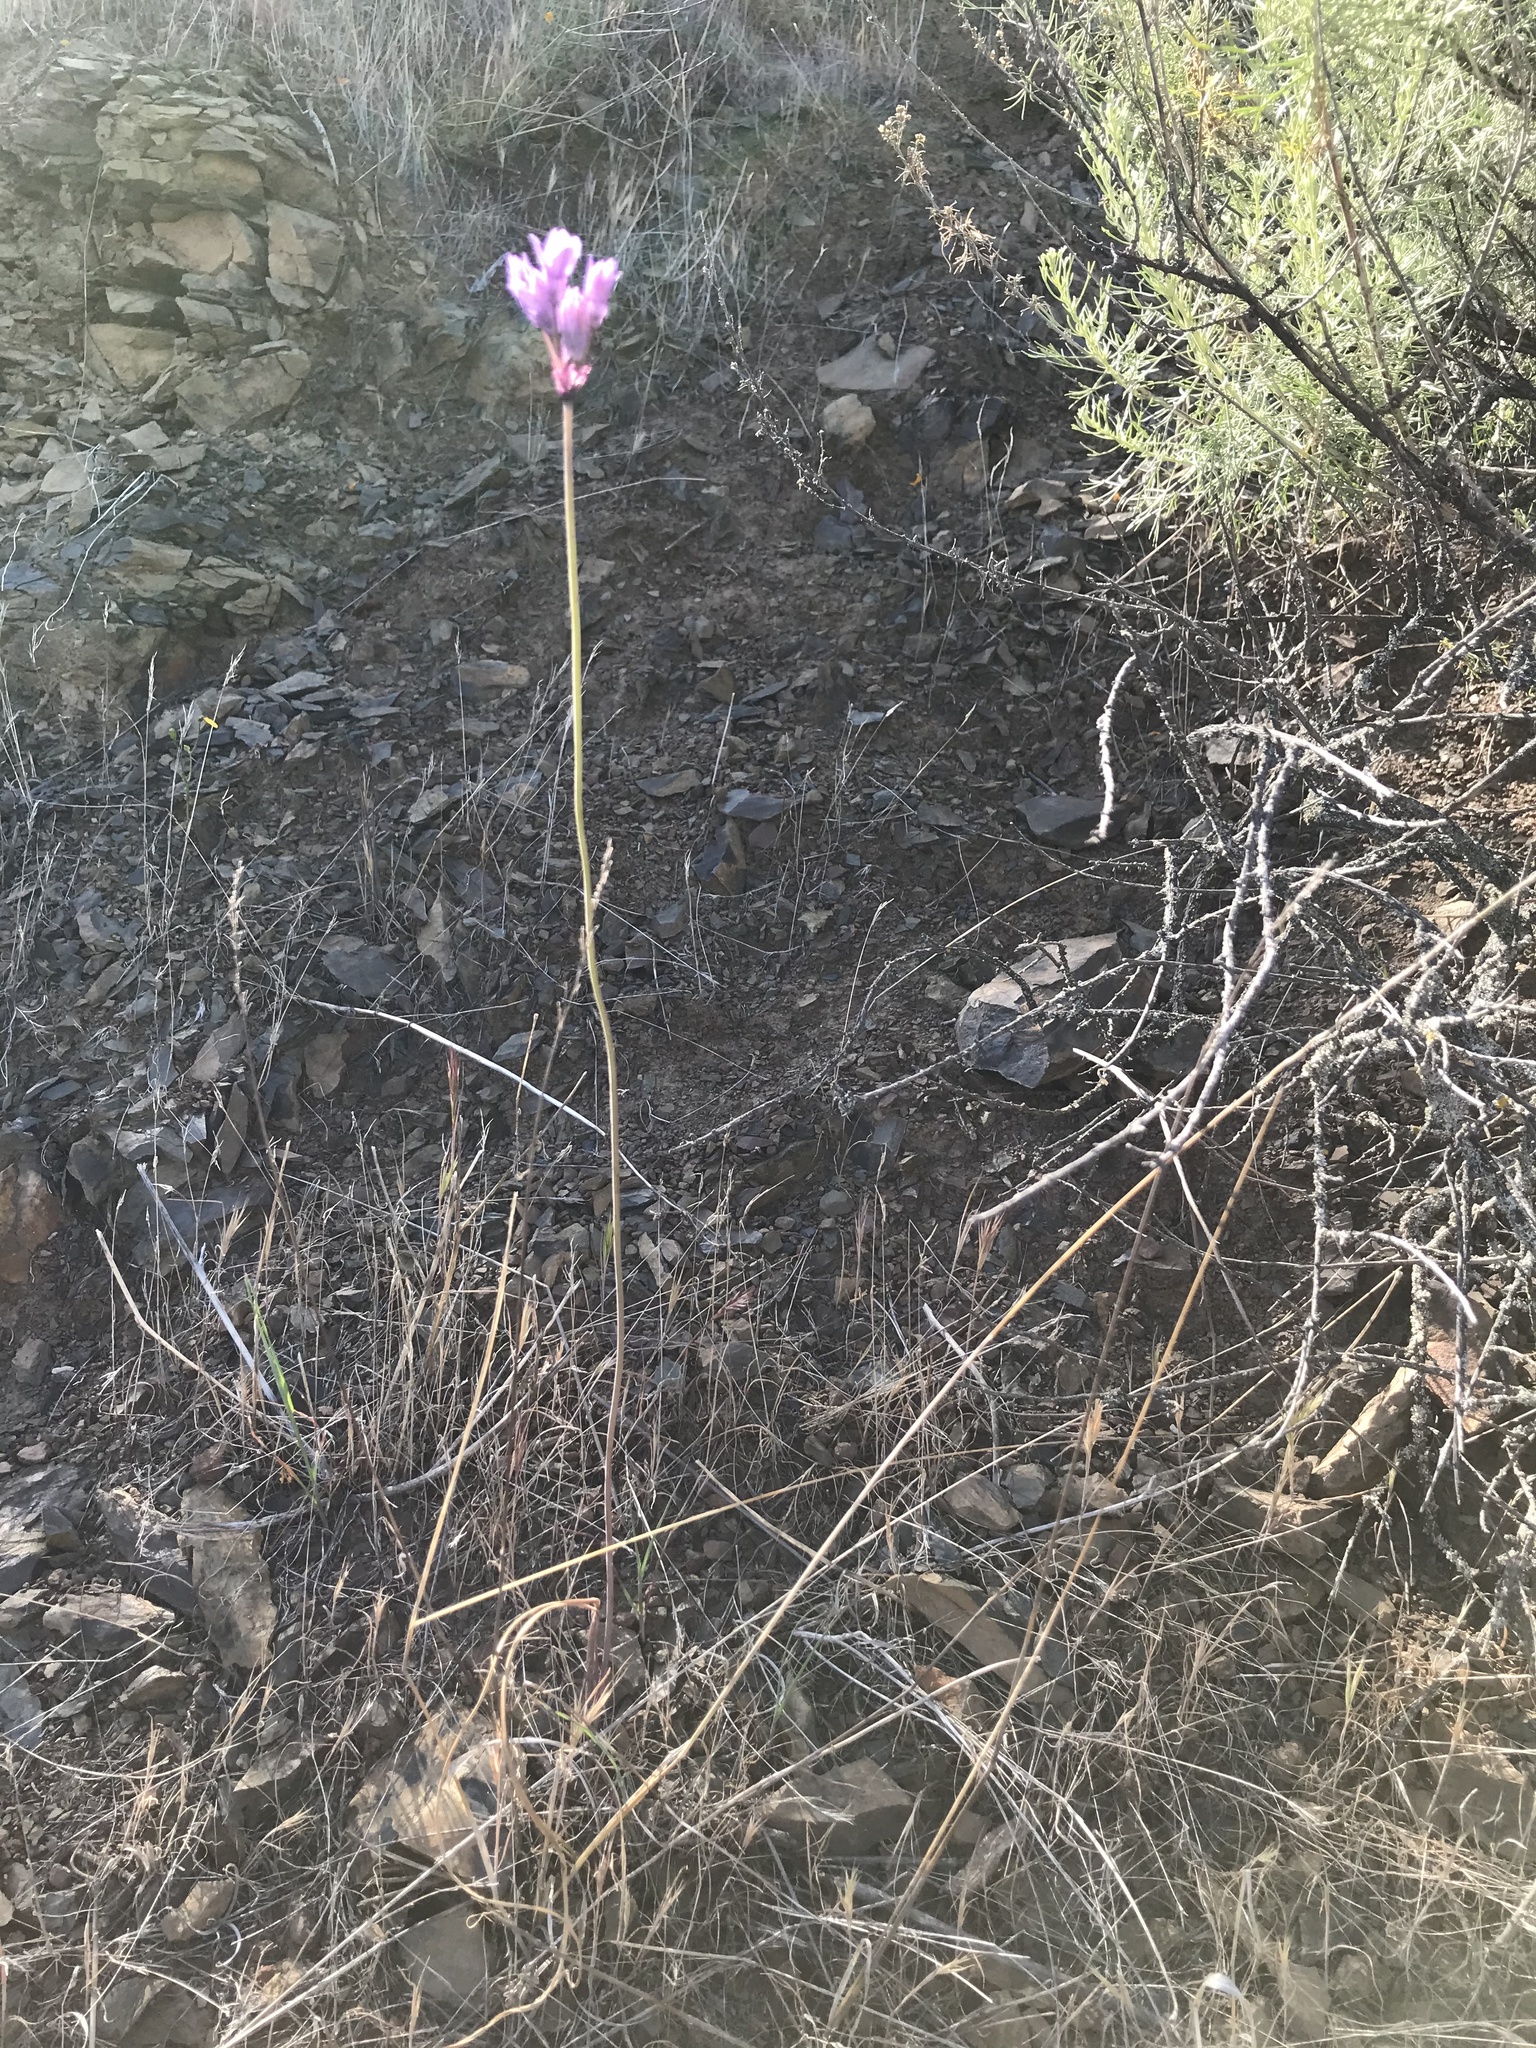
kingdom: Plantae
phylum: Tracheophyta
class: Liliopsida
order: Asparagales
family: Asparagaceae
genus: Dipterostemon
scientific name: Dipterostemon capitatus
